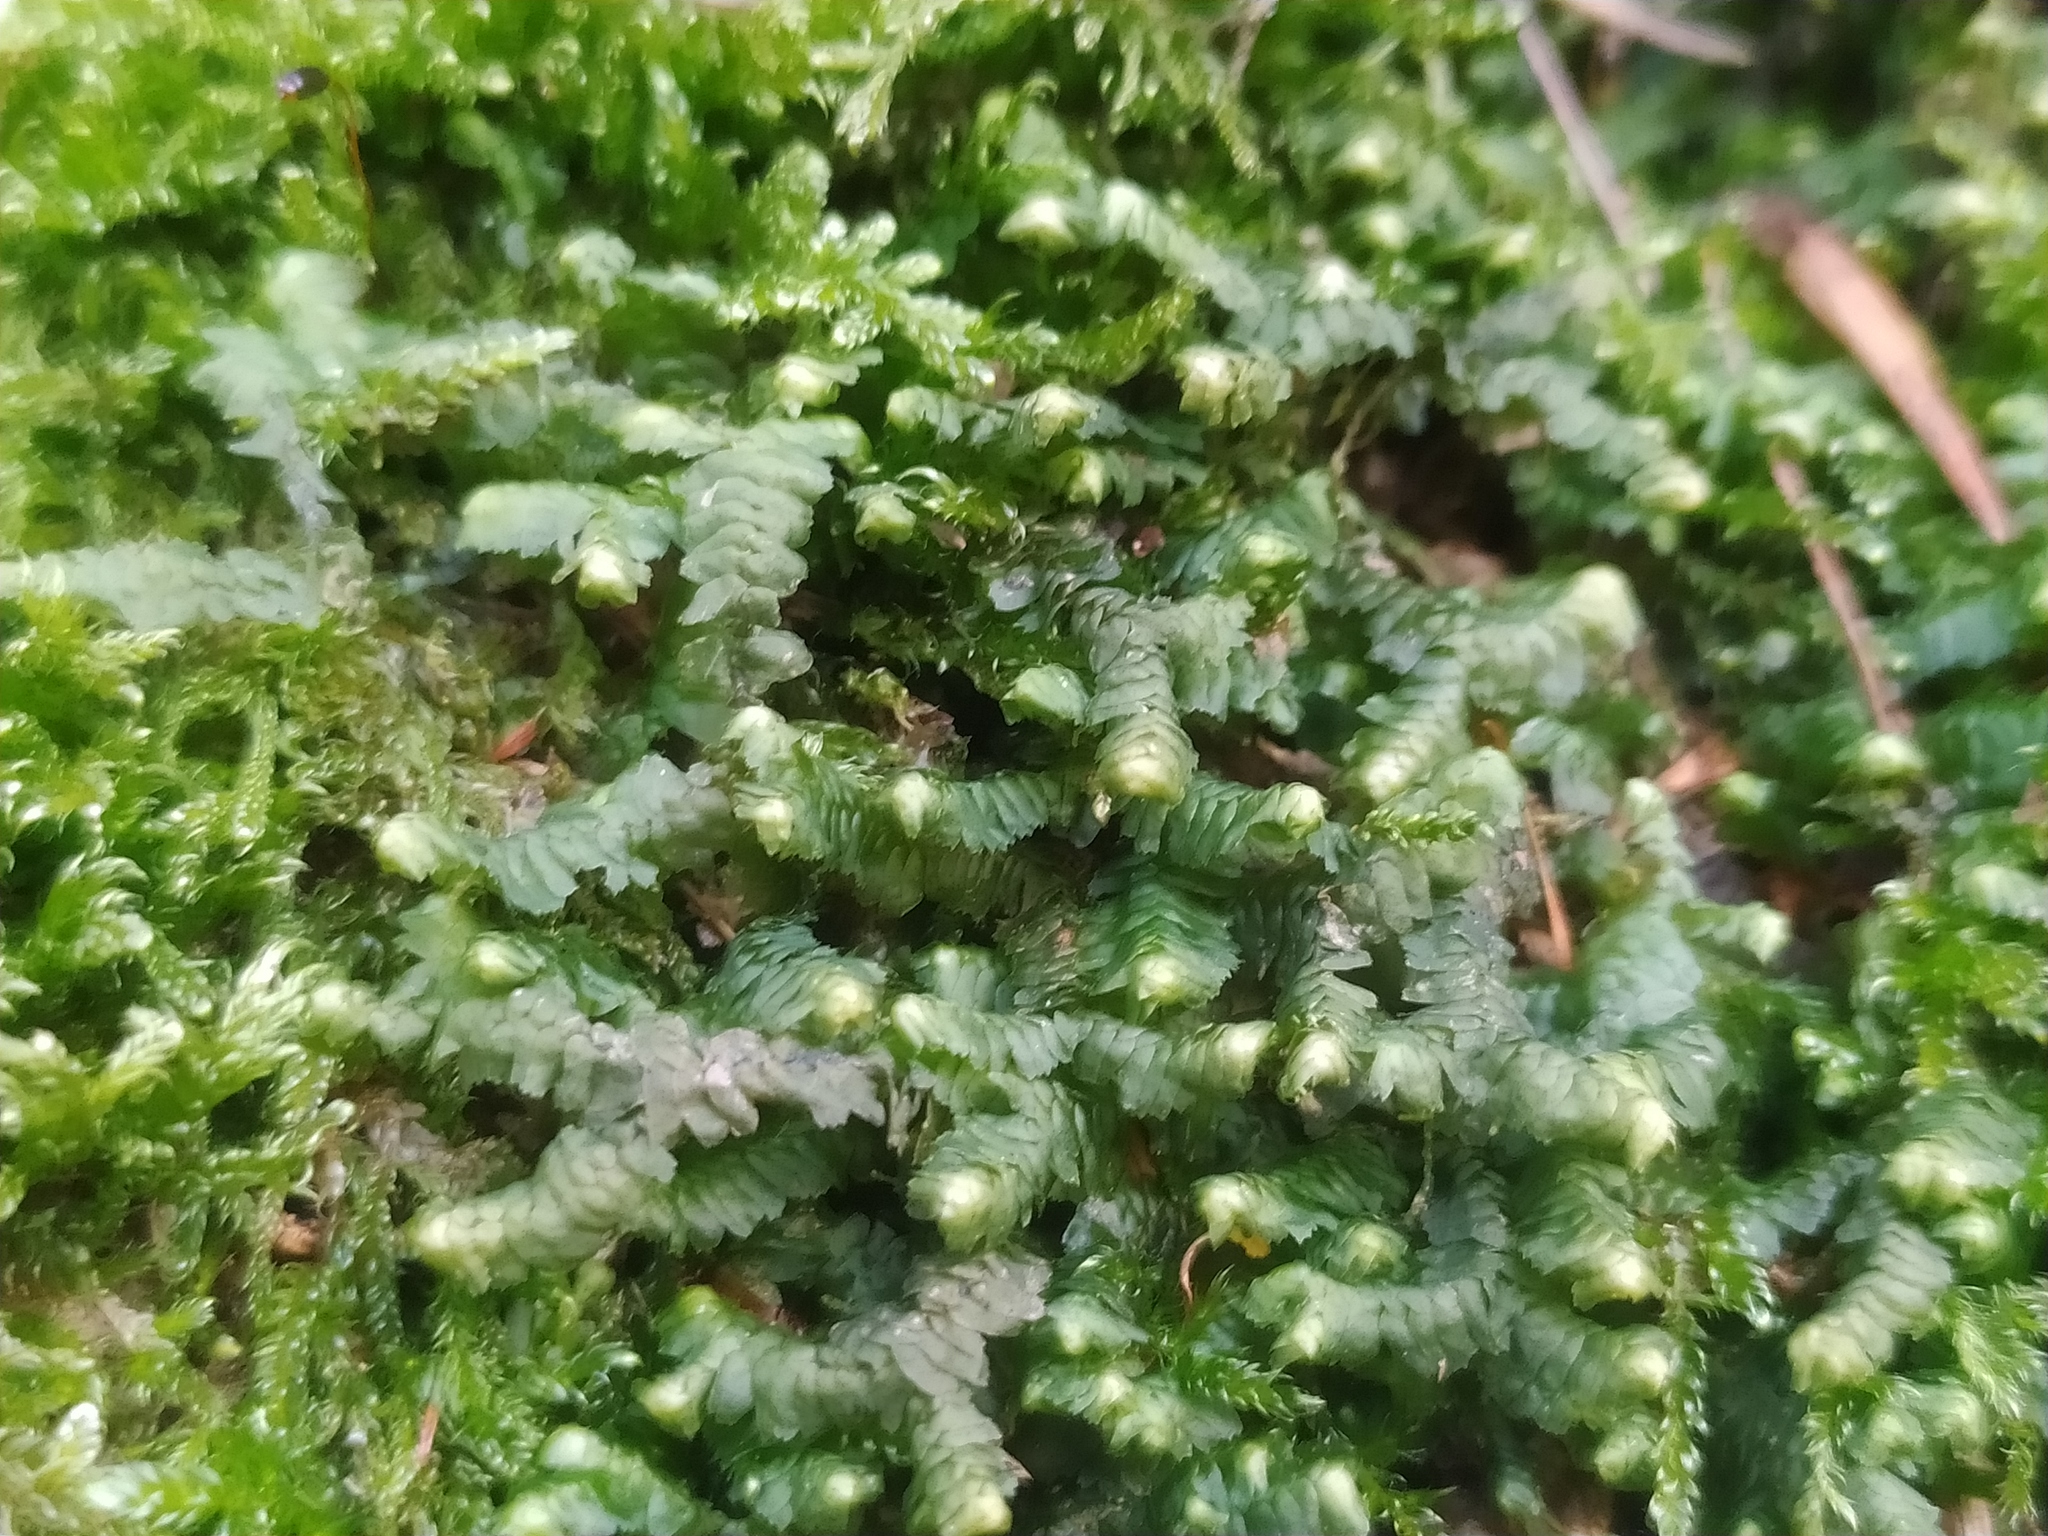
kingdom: Plantae
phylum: Marchantiophyta
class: Jungermanniopsida
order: Jungermanniales
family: Lepidoziaceae
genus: Bazzania
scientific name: Bazzania trilobata
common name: Three-lobed whipwort
